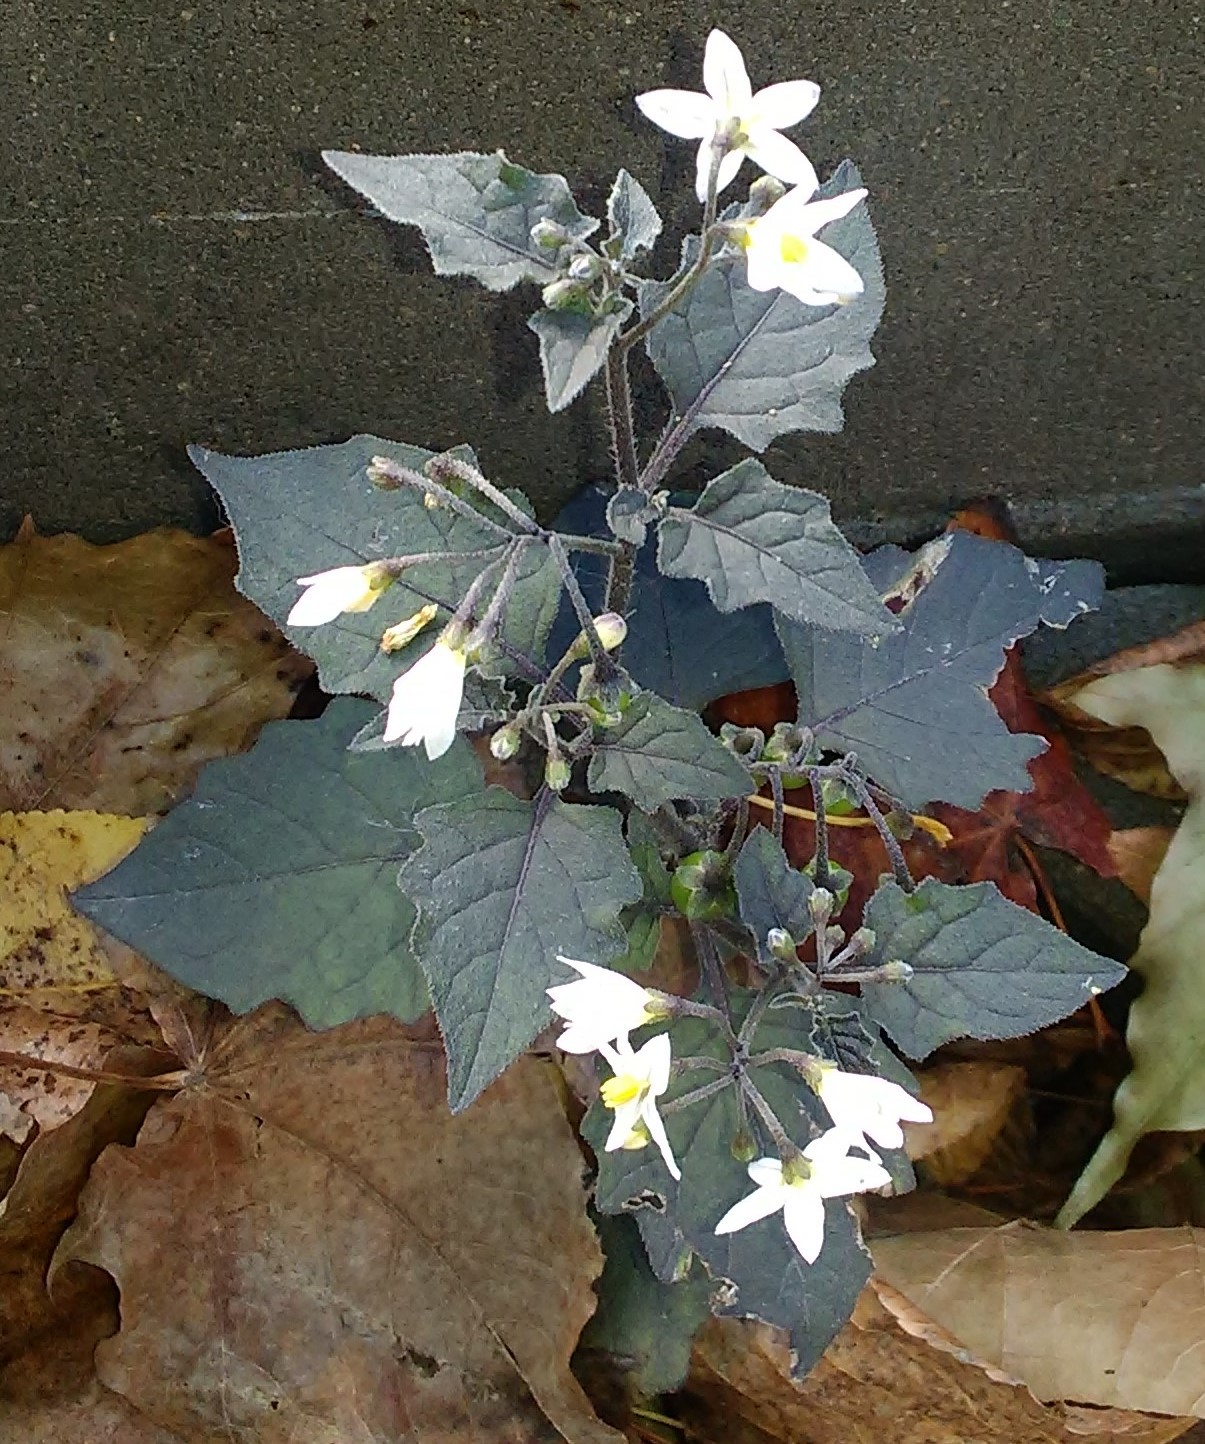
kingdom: Plantae
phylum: Tracheophyta
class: Magnoliopsida
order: Solanales
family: Solanaceae
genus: Solanum
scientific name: Solanum nigrum
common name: Black nightshade
